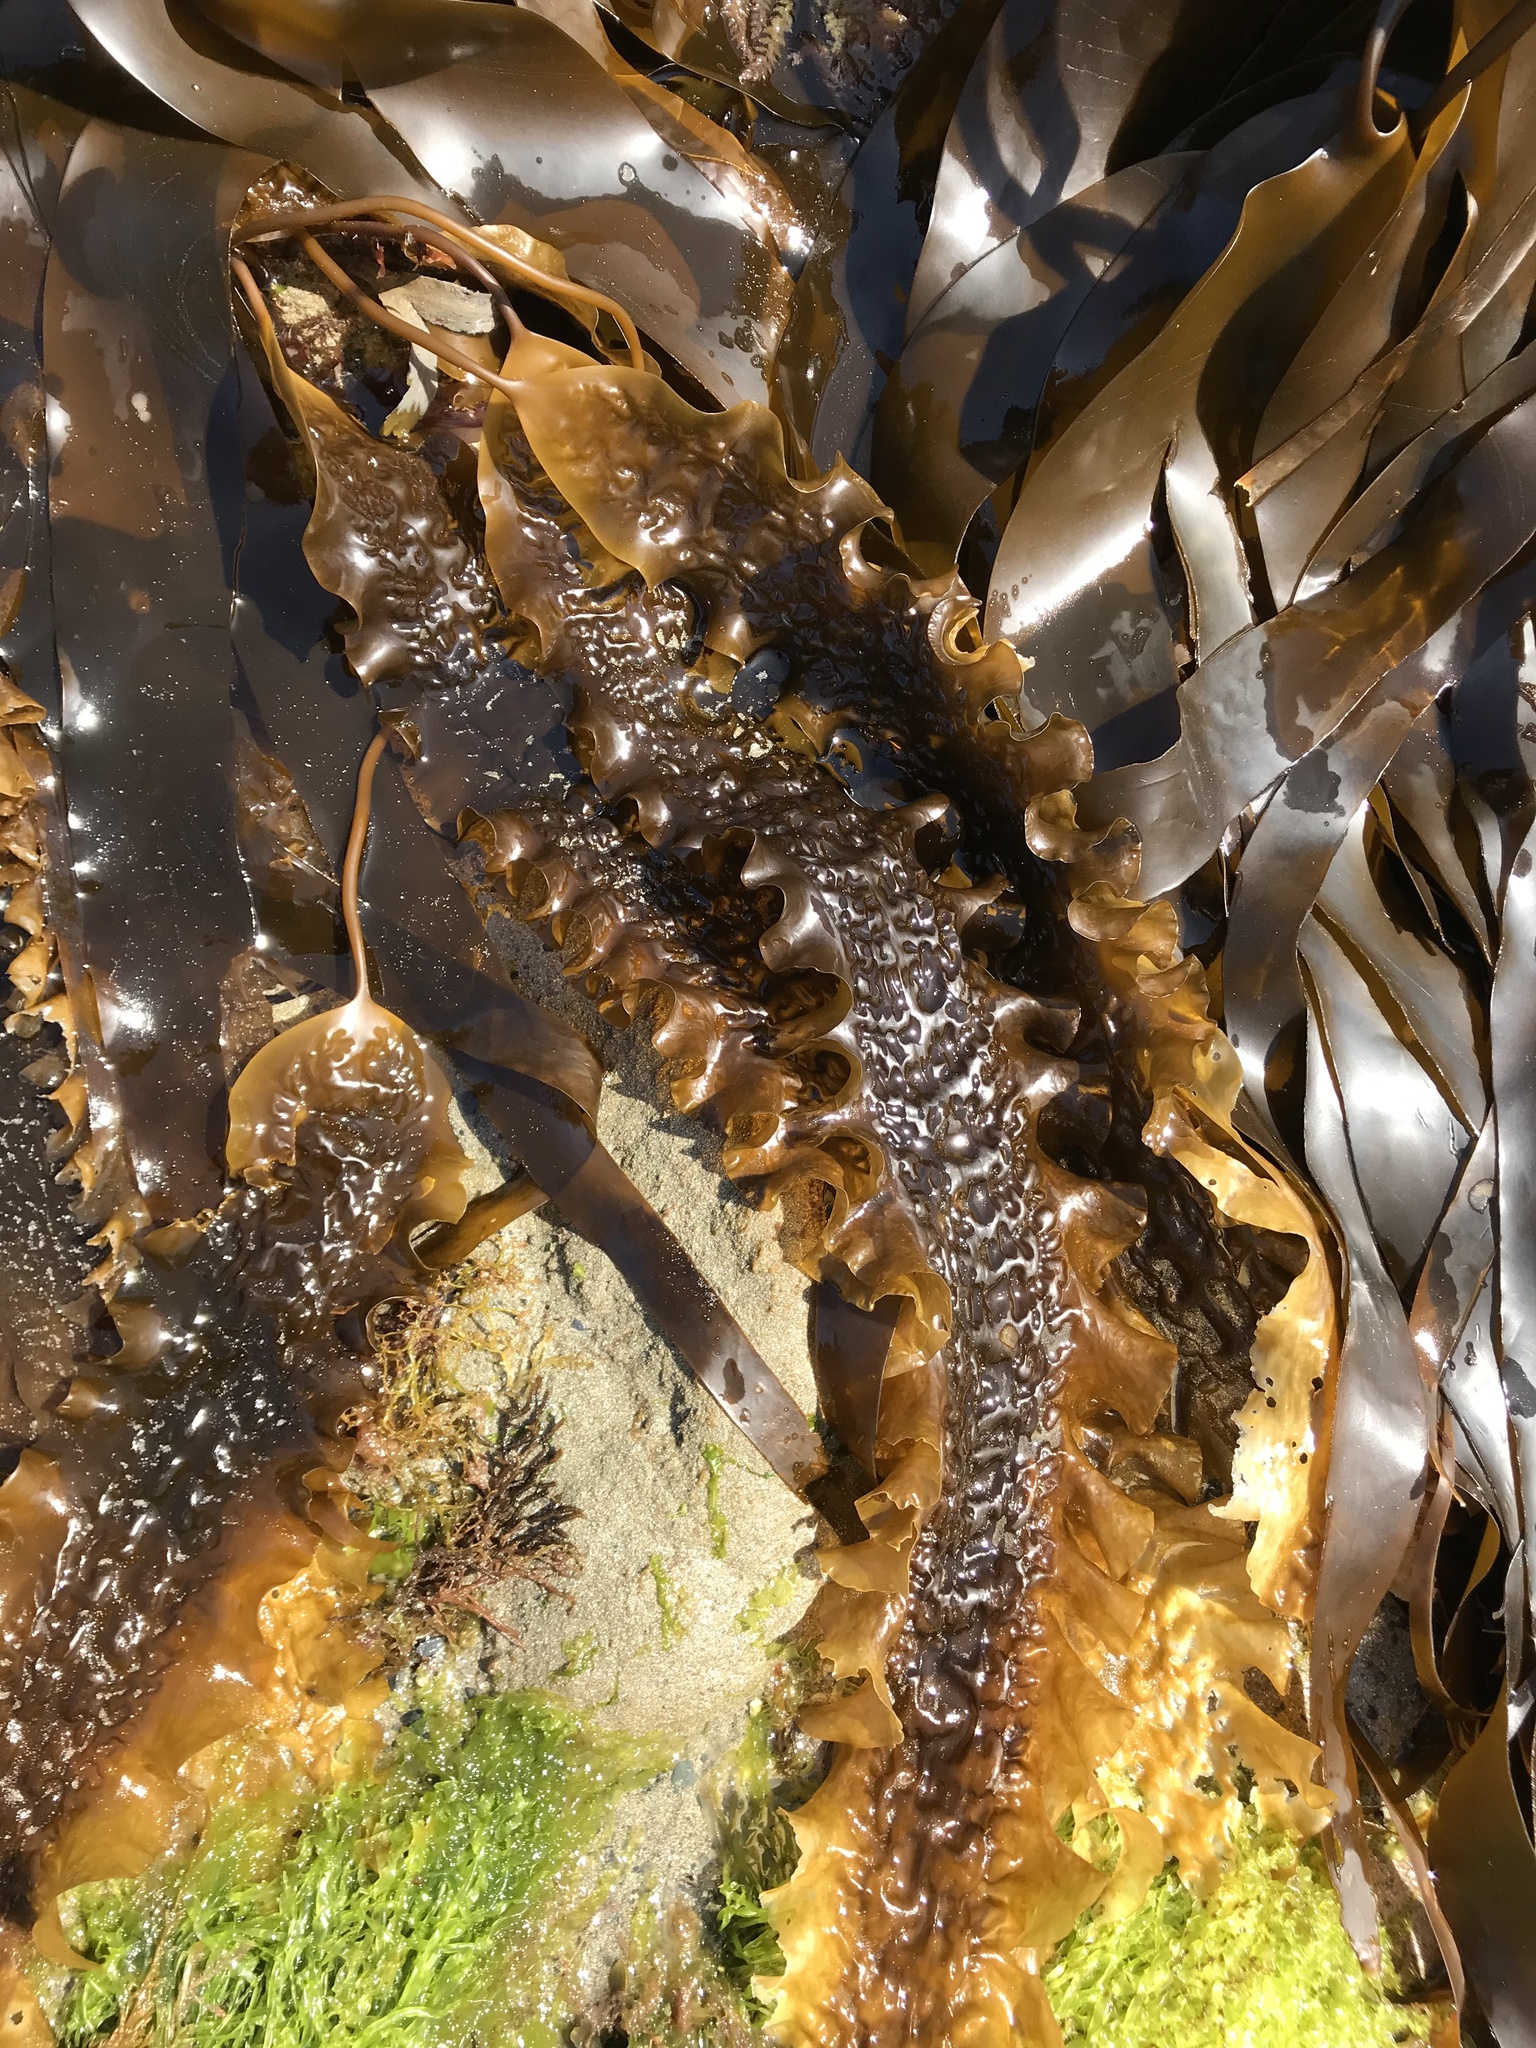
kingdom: Chromista
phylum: Ochrophyta
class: Phaeophyceae
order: Laminariales
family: Laminariaceae
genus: Saccharina
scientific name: Saccharina latissima
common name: Poor man's weather glass
